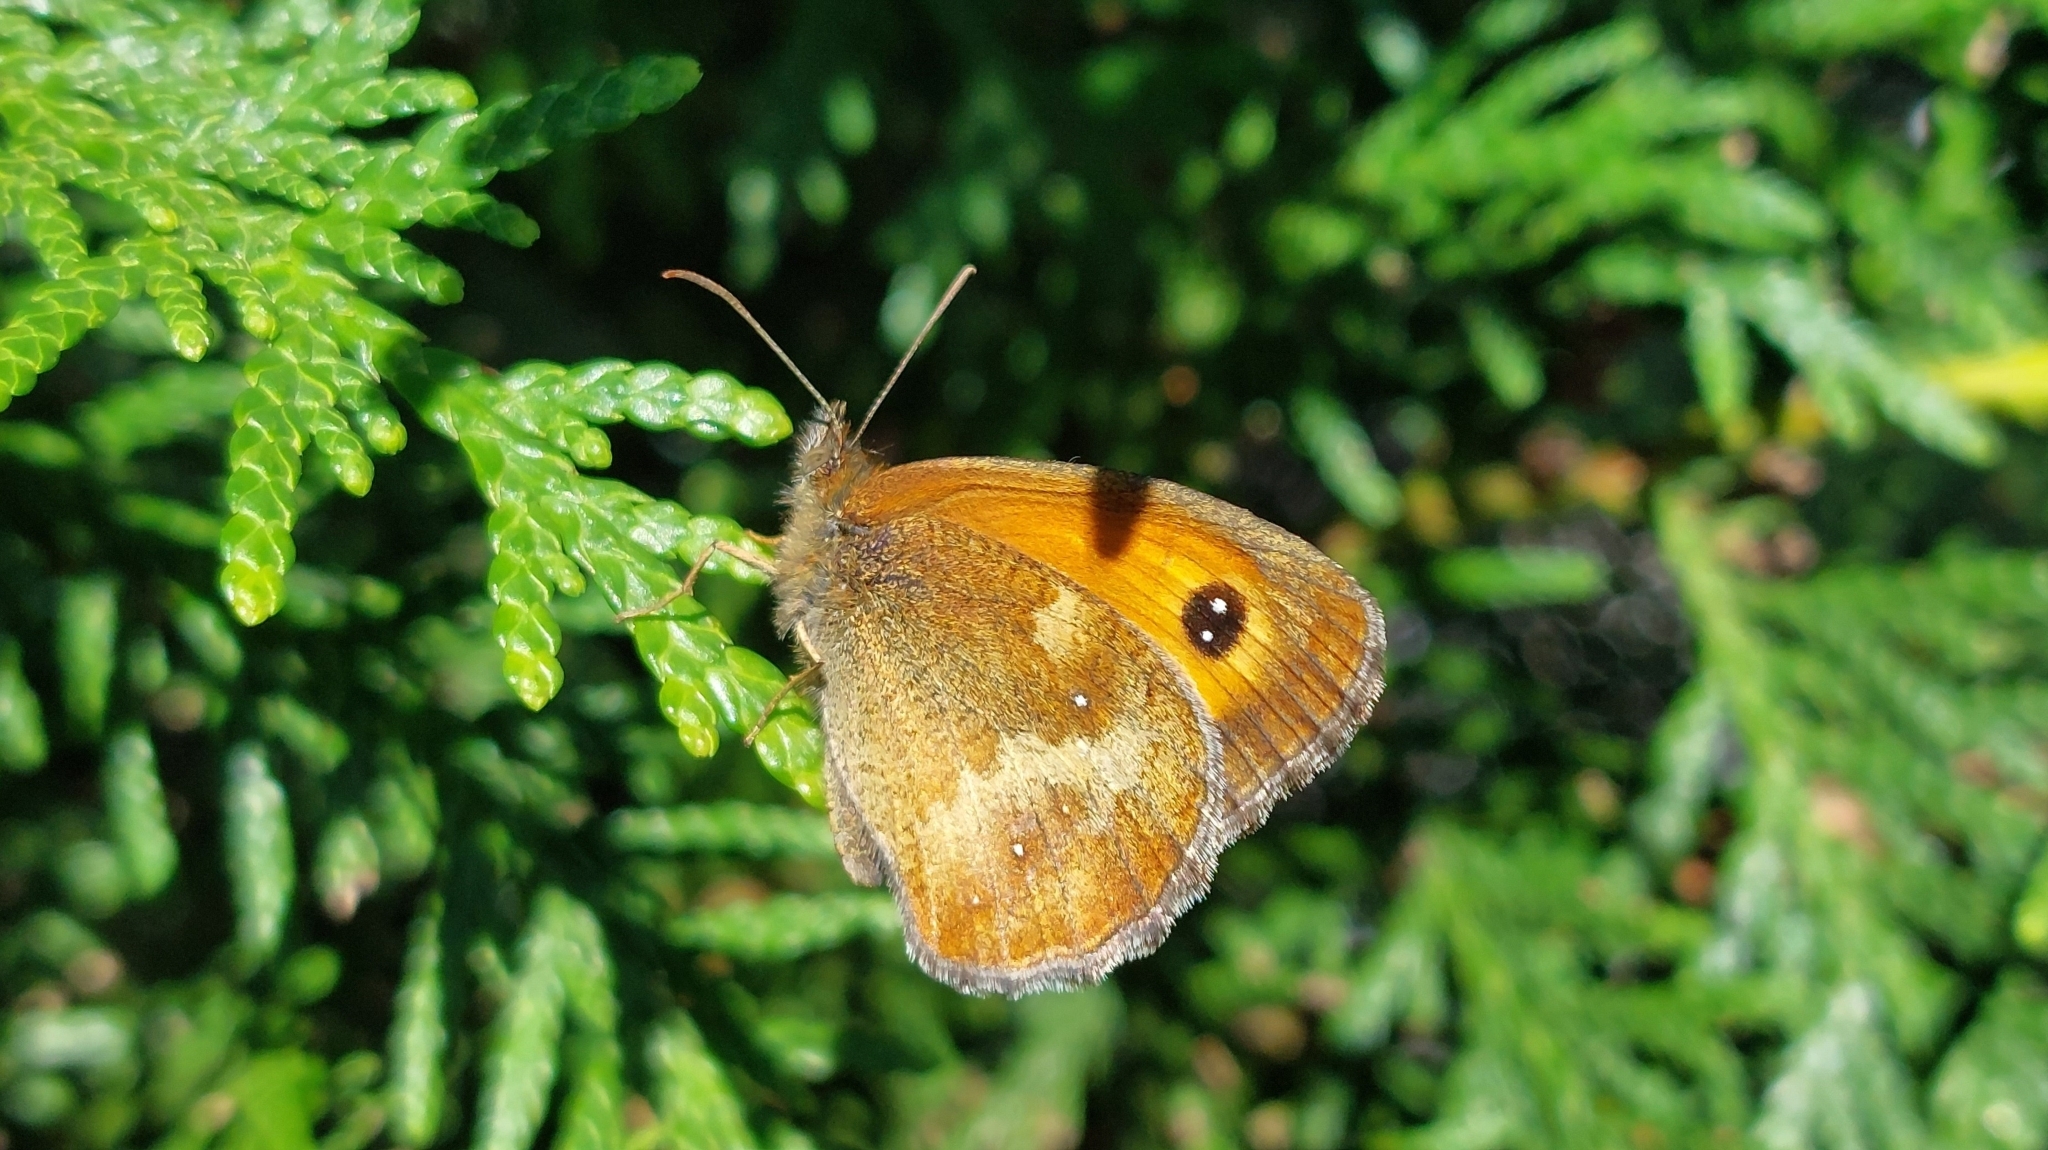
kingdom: Animalia
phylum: Arthropoda
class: Insecta
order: Lepidoptera
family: Nymphalidae
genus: Pyronia
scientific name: Pyronia tithonus
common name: Gatekeeper
